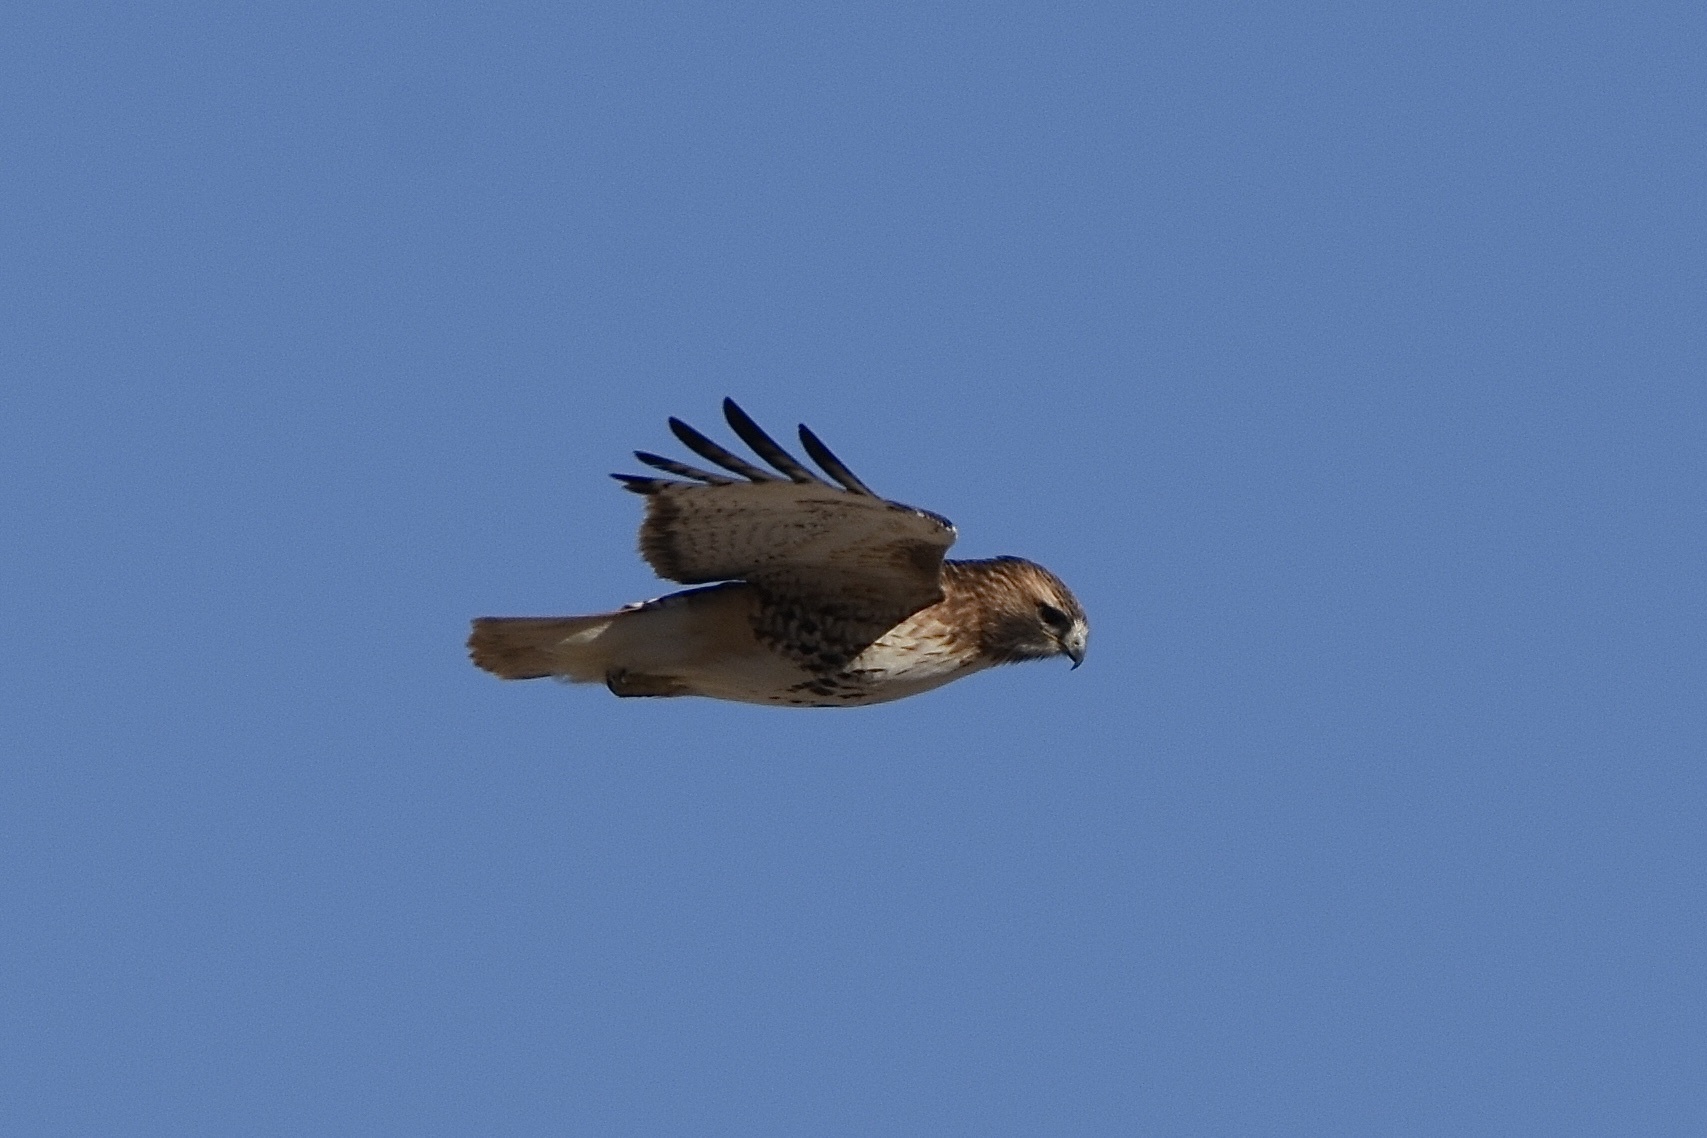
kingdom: Animalia
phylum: Chordata
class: Aves
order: Accipitriformes
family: Accipitridae
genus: Buteo
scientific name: Buteo jamaicensis
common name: Red-tailed hawk
